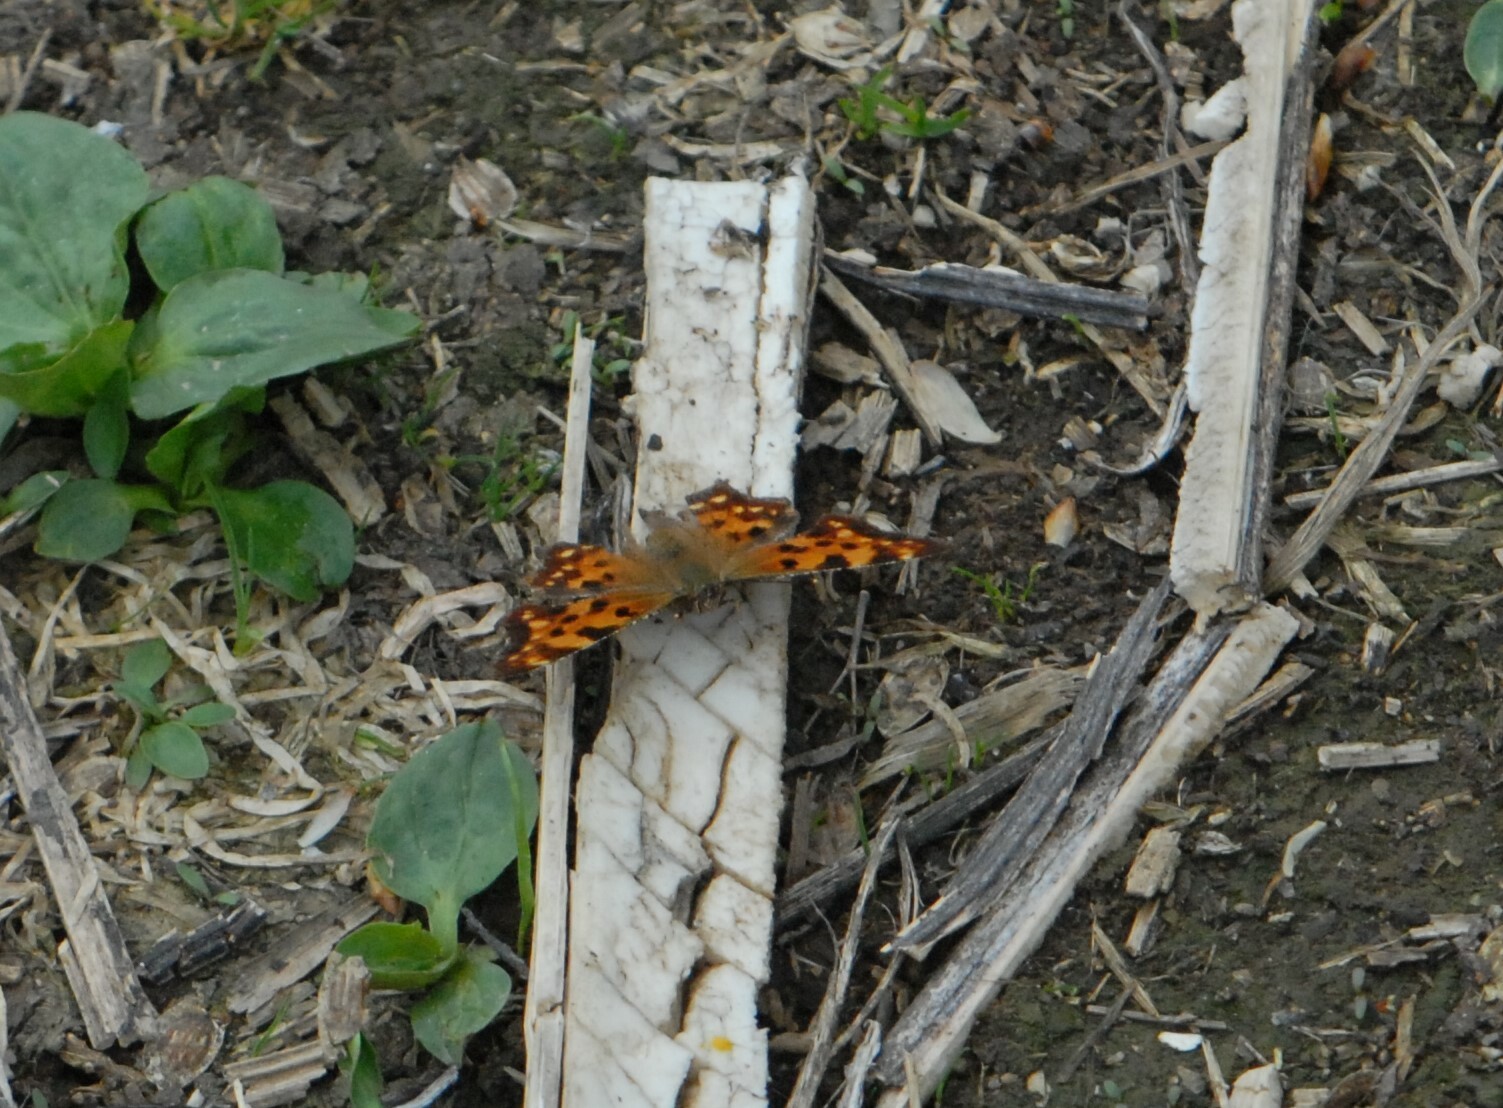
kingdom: Animalia
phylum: Arthropoda
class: Insecta
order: Lepidoptera
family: Nymphalidae
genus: Polygonia
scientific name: Polygonia c-album
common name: Comma
